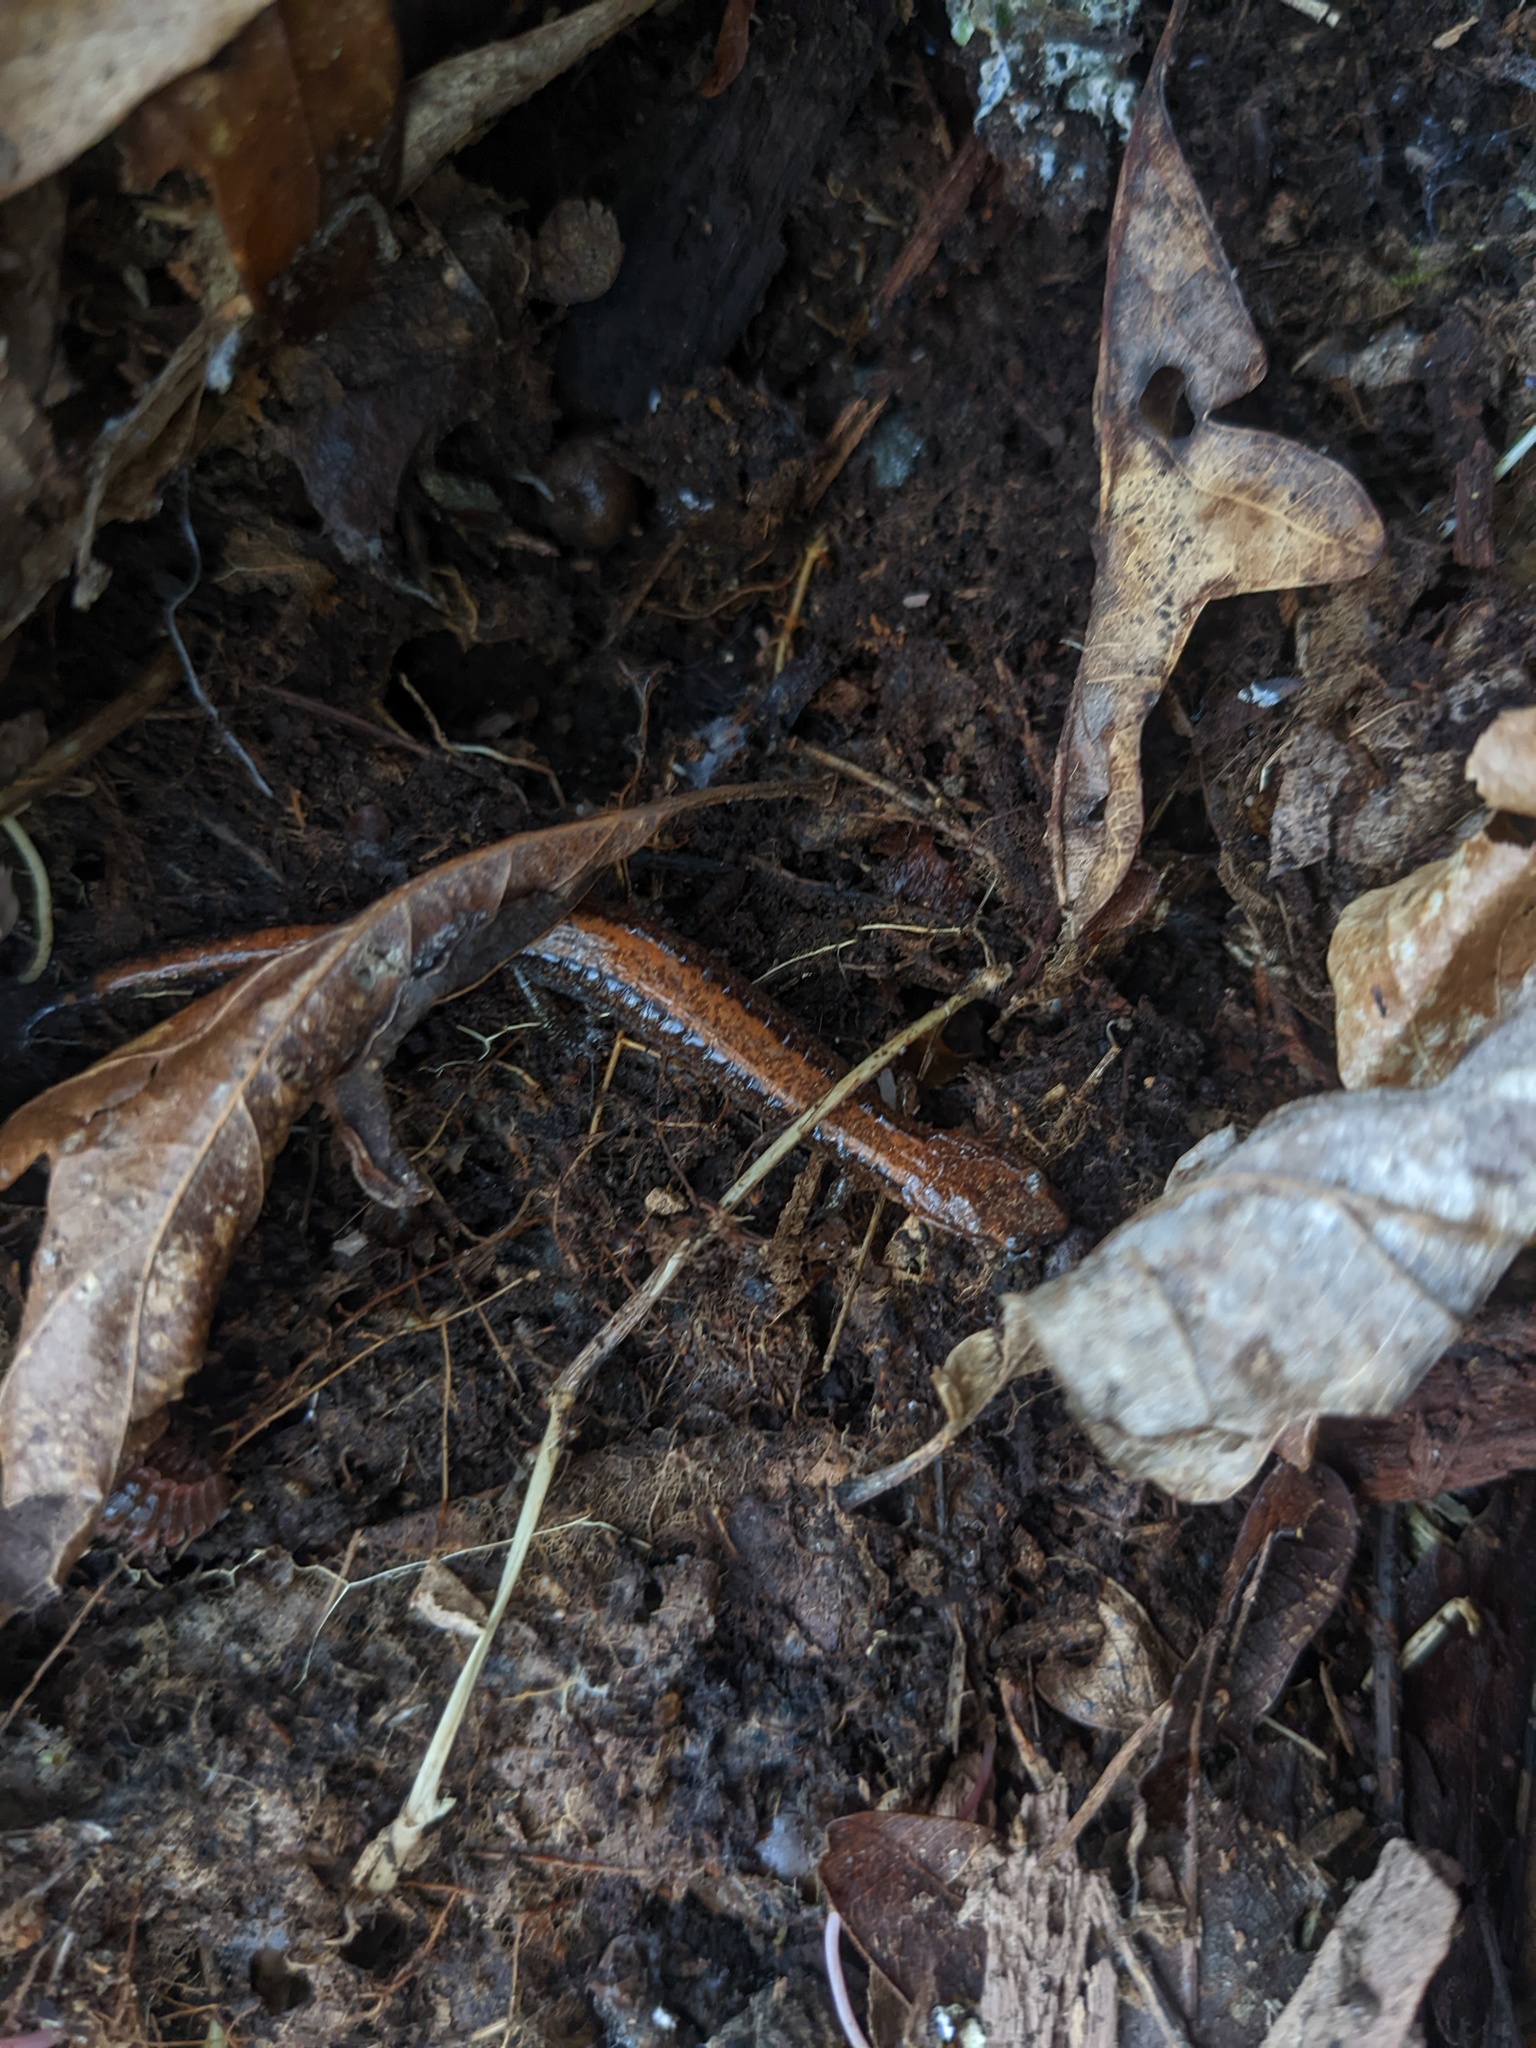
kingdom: Animalia
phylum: Chordata
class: Amphibia
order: Caudata
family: Plethodontidae
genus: Plethodon
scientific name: Plethodon cinereus
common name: Redback salamander
